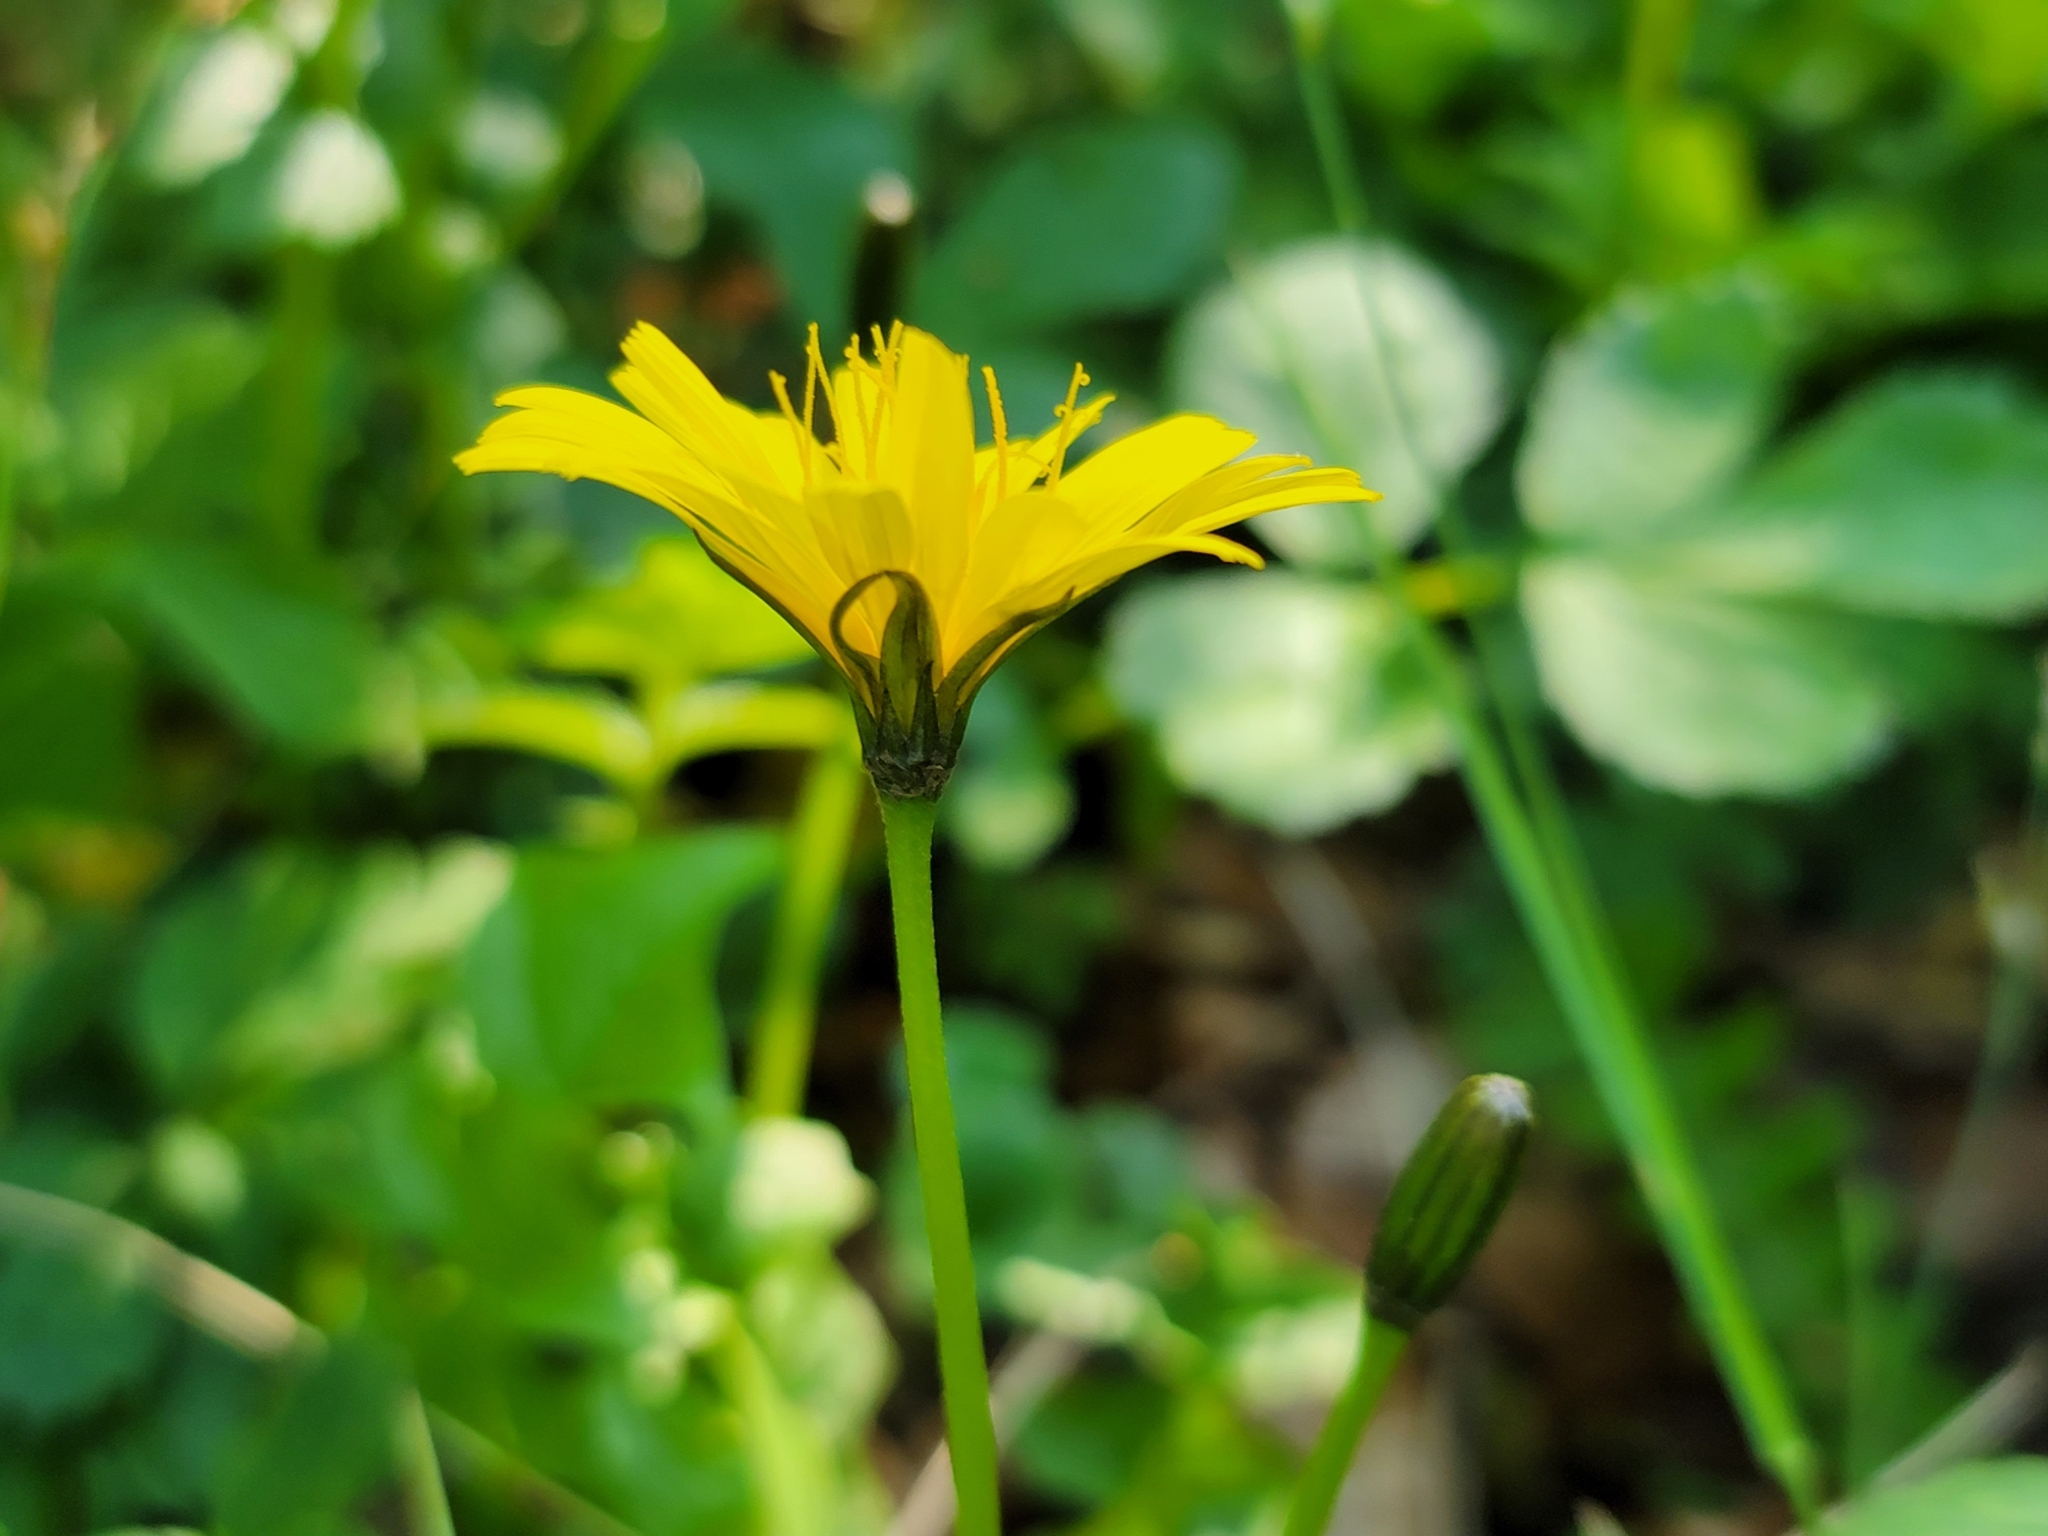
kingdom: Plantae
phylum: Tracheophyta
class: Magnoliopsida
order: Asterales
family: Asteraceae
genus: Aposeris
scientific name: Aposeris foetida
